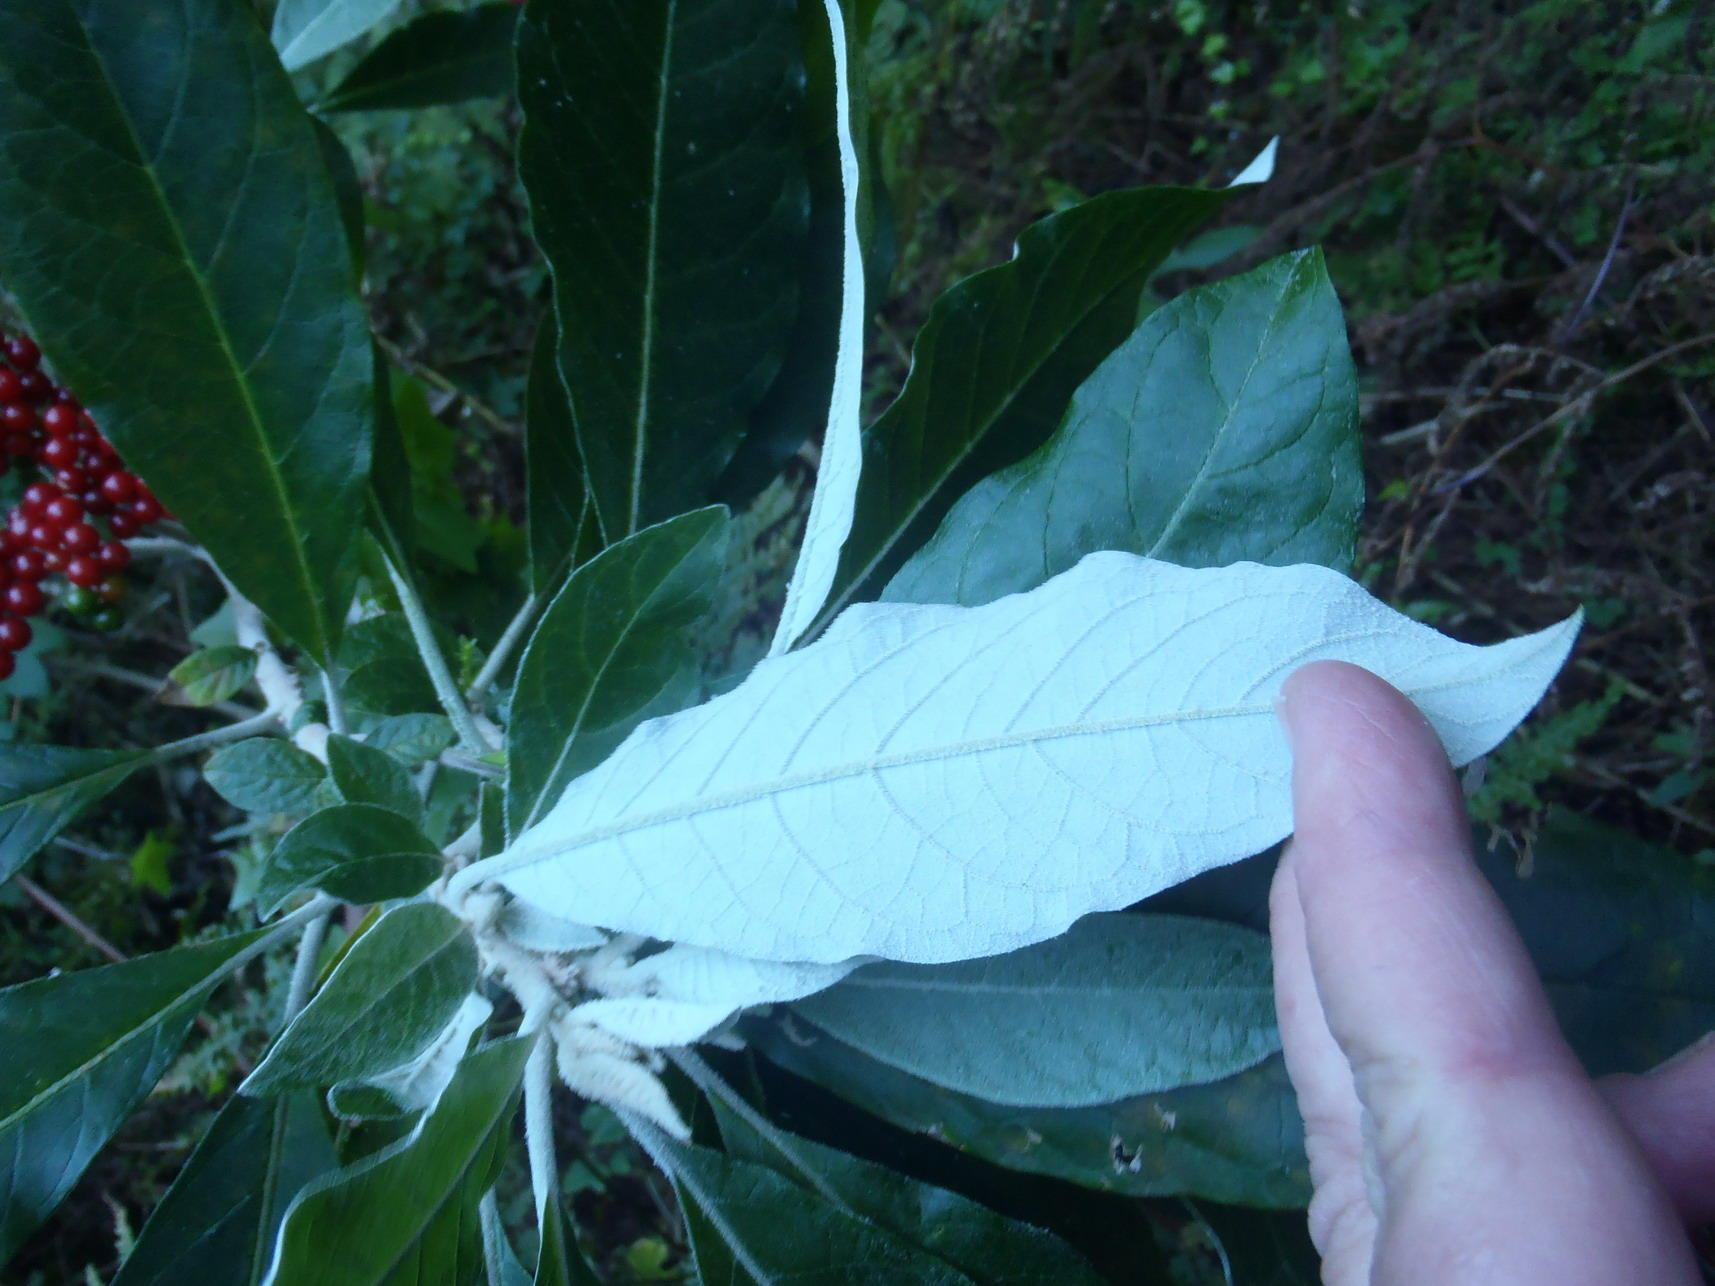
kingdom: Plantae
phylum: Tracheophyta
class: Magnoliopsida
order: Solanales
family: Solanaceae
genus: Solanum
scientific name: Solanum giganteum
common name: Healing-leaf-tree
